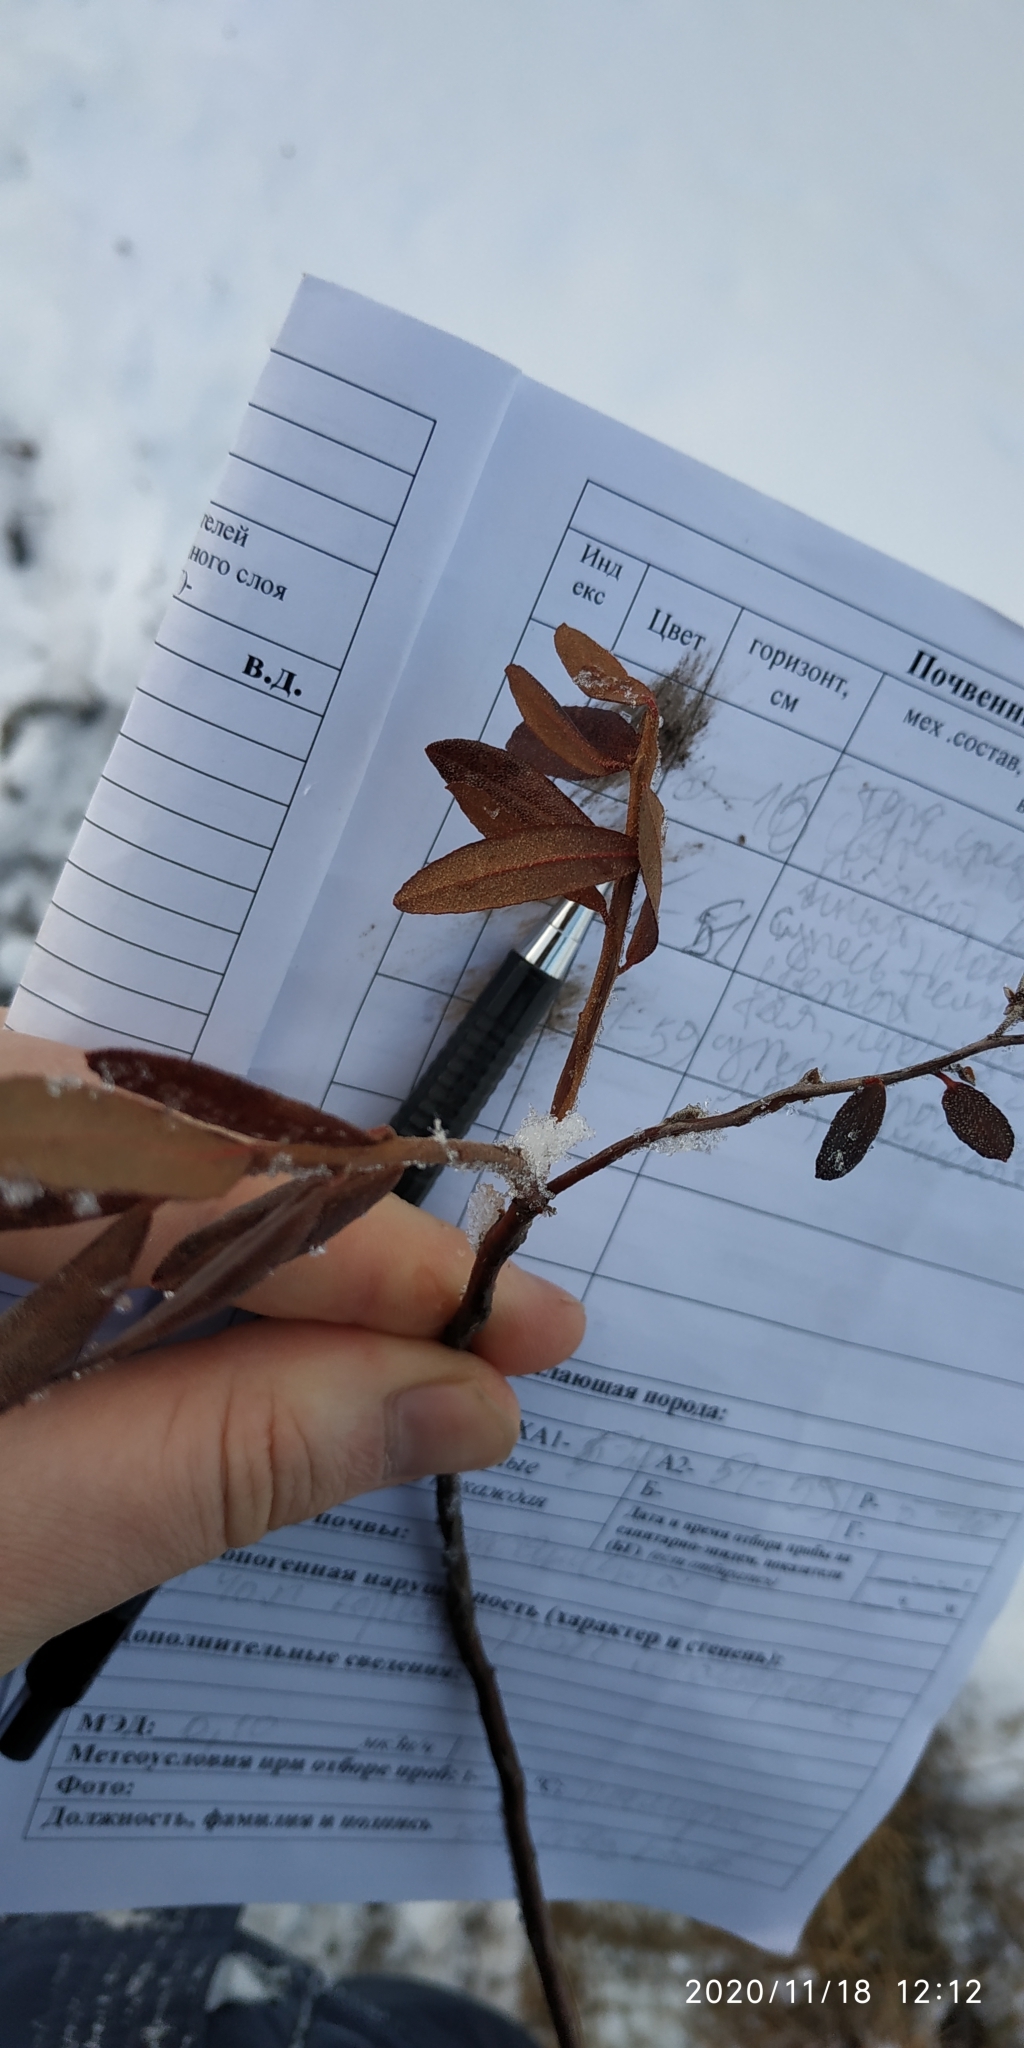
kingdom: Plantae
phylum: Tracheophyta
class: Magnoliopsida
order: Ericales
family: Ericaceae
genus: Chamaedaphne
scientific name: Chamaedaphne calyculata
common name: Leatherleaf
